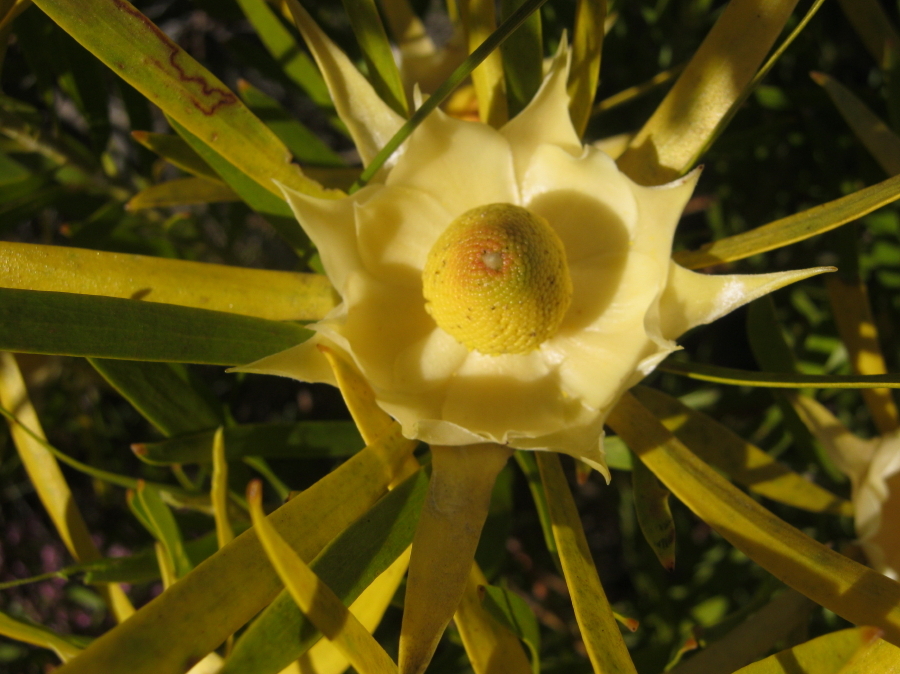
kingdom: Plantae
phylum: Tracheophyta
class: Magnoliopsida
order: Proteales
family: Proteaceae
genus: Leucadendron
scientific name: Leucadendron eucalyptifolium
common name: Gum-leaved conebush
